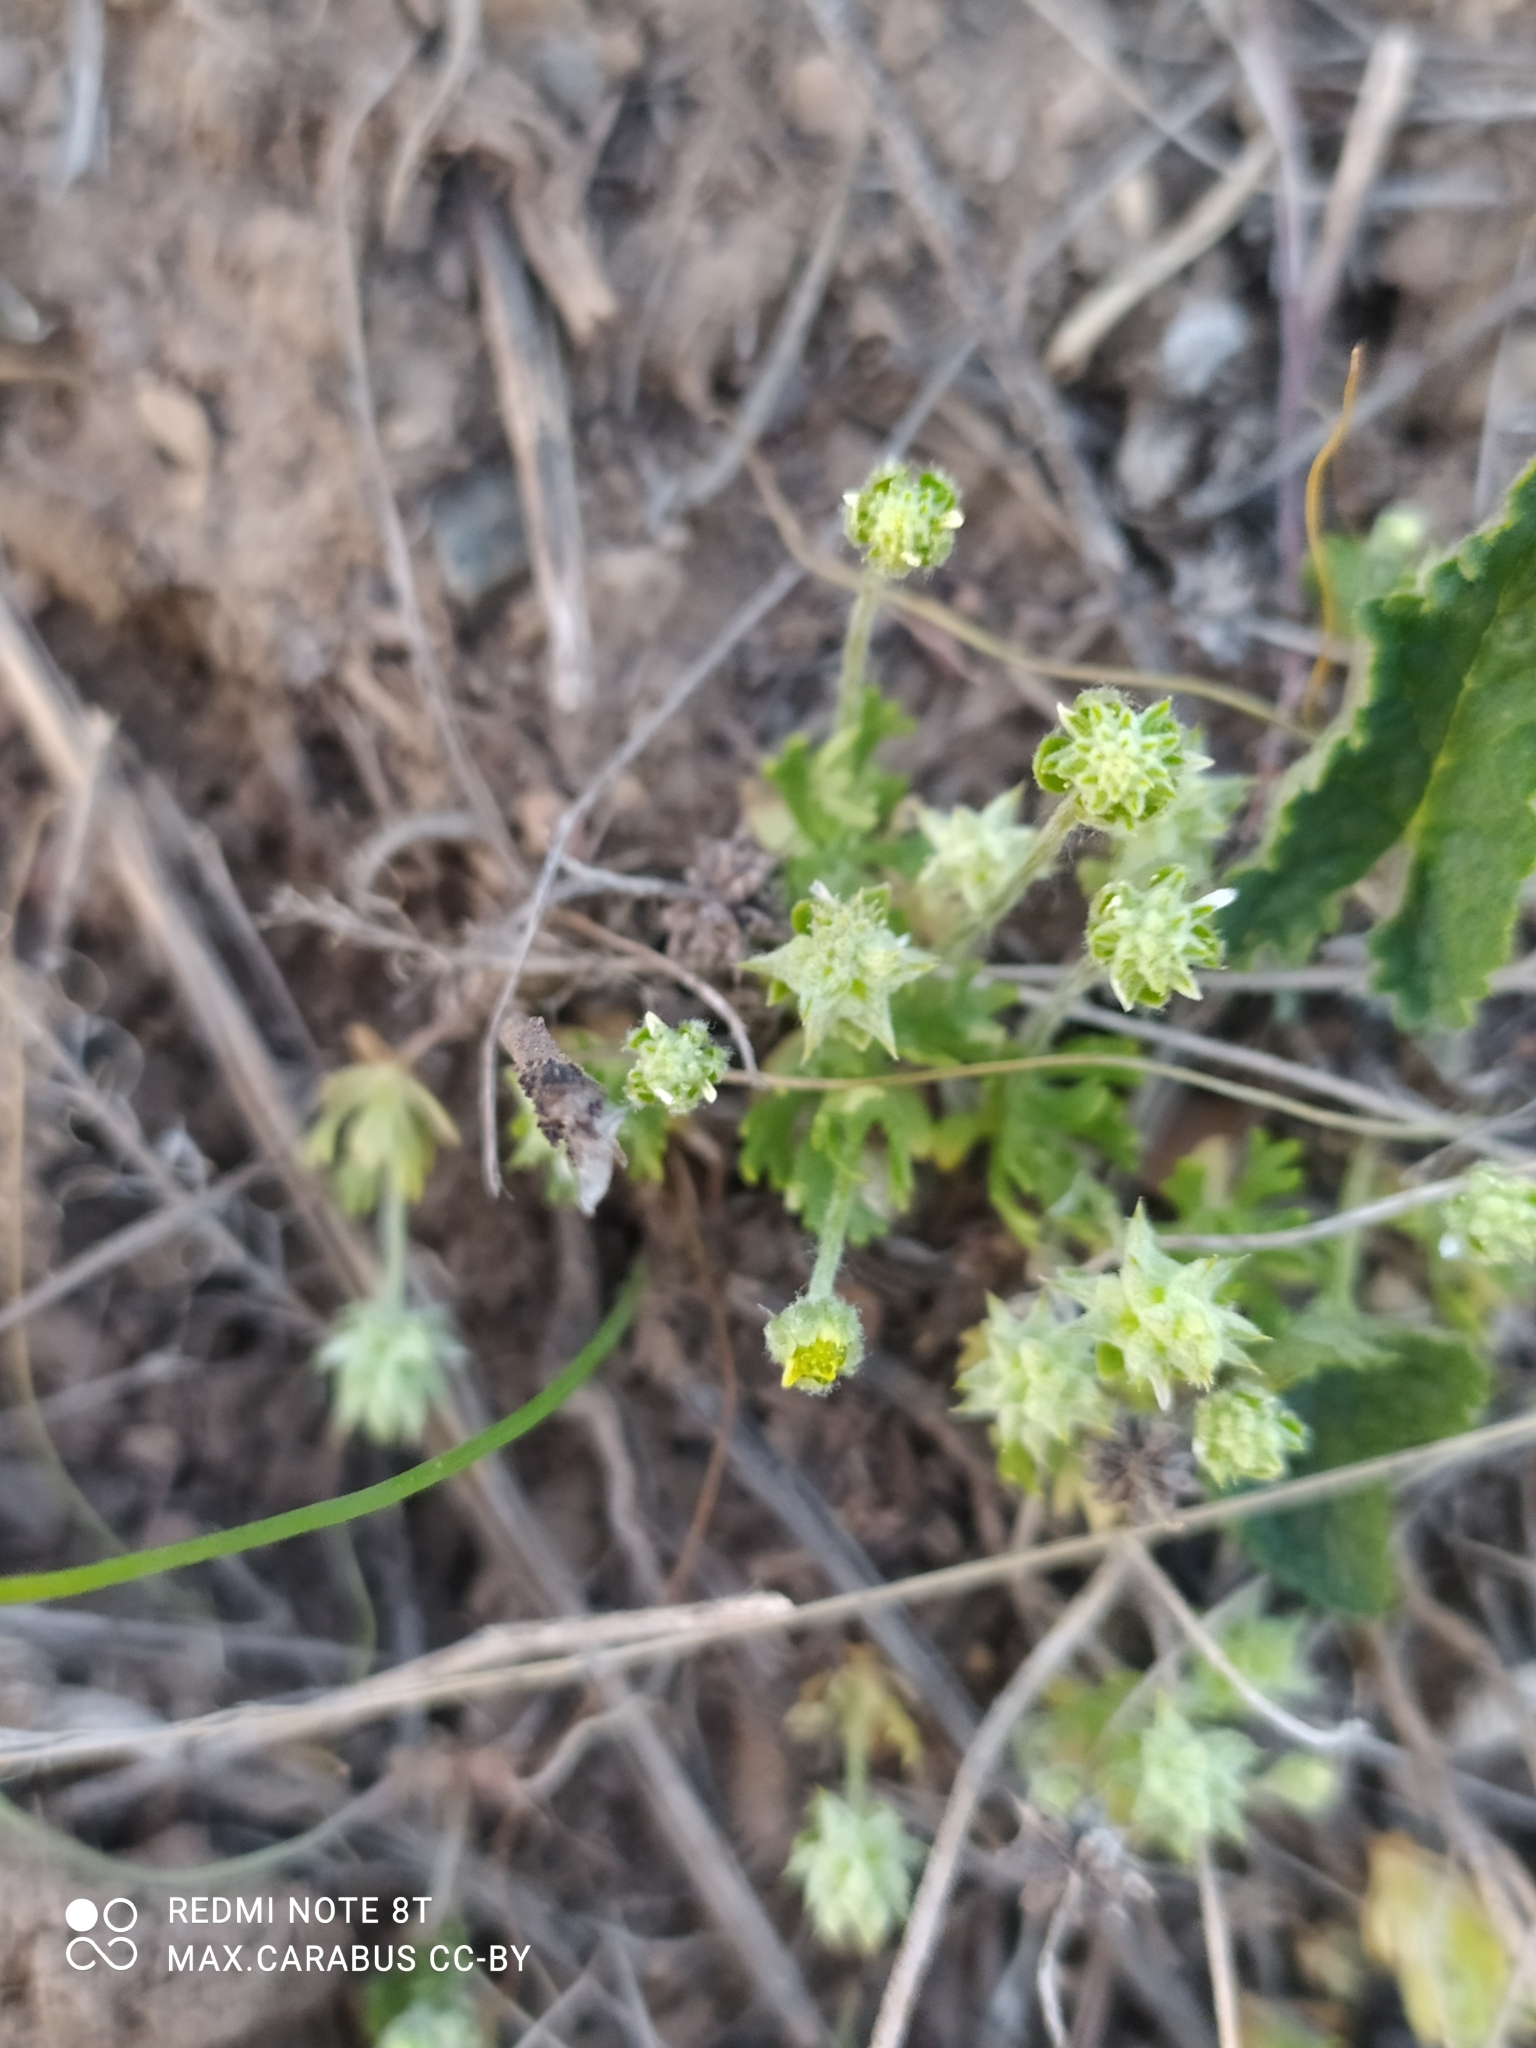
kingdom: Plantae
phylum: Tracheophyta
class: Magnoliopsida
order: Ranunculales
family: Ranunculaceae
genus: Ceratocephala
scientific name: Ceratocephala orthoceras
